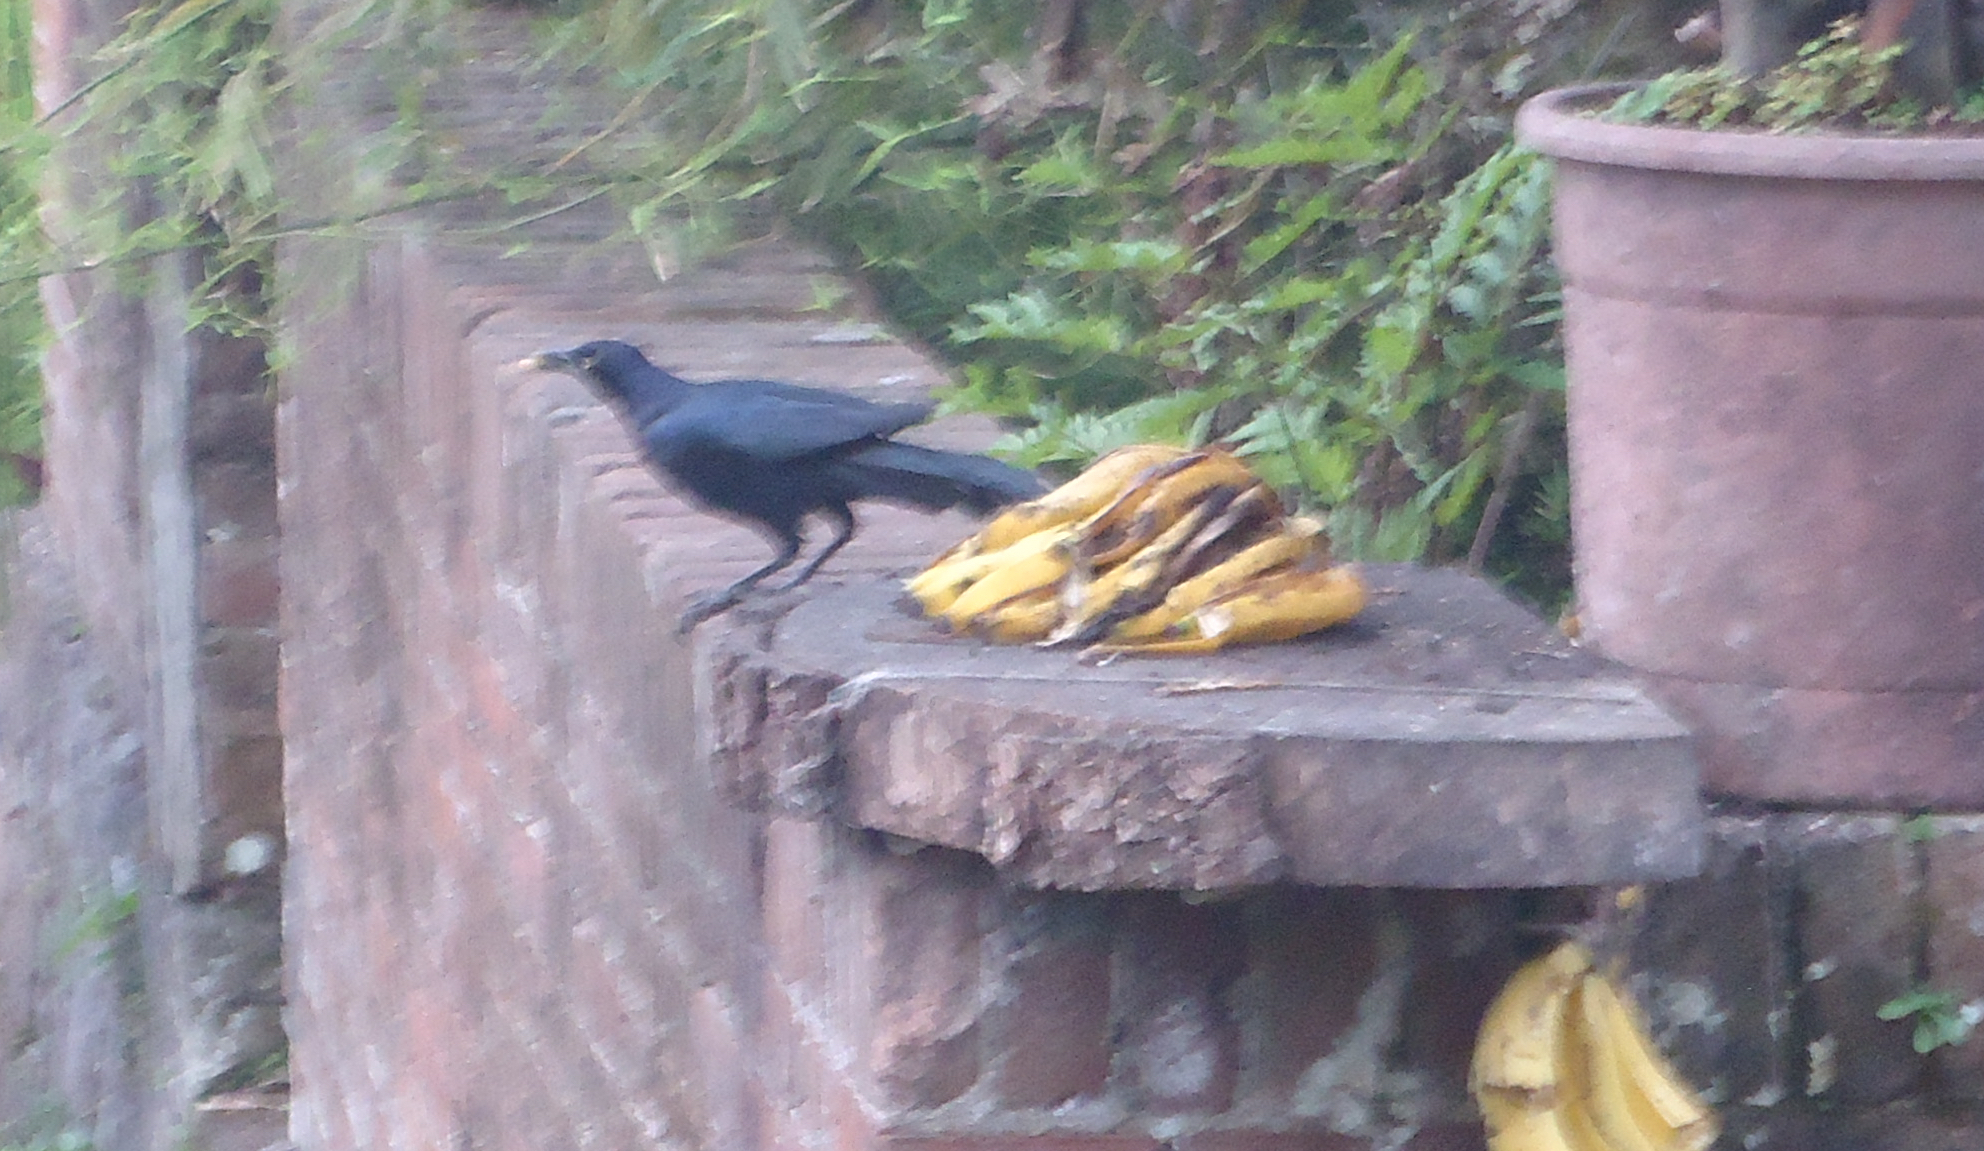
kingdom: Animalia
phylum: Chordata
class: Aves
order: Passeriformes
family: Icteridae
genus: Quiscalus
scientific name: Quiscalus mexicanus
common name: Great-tailed grackle
